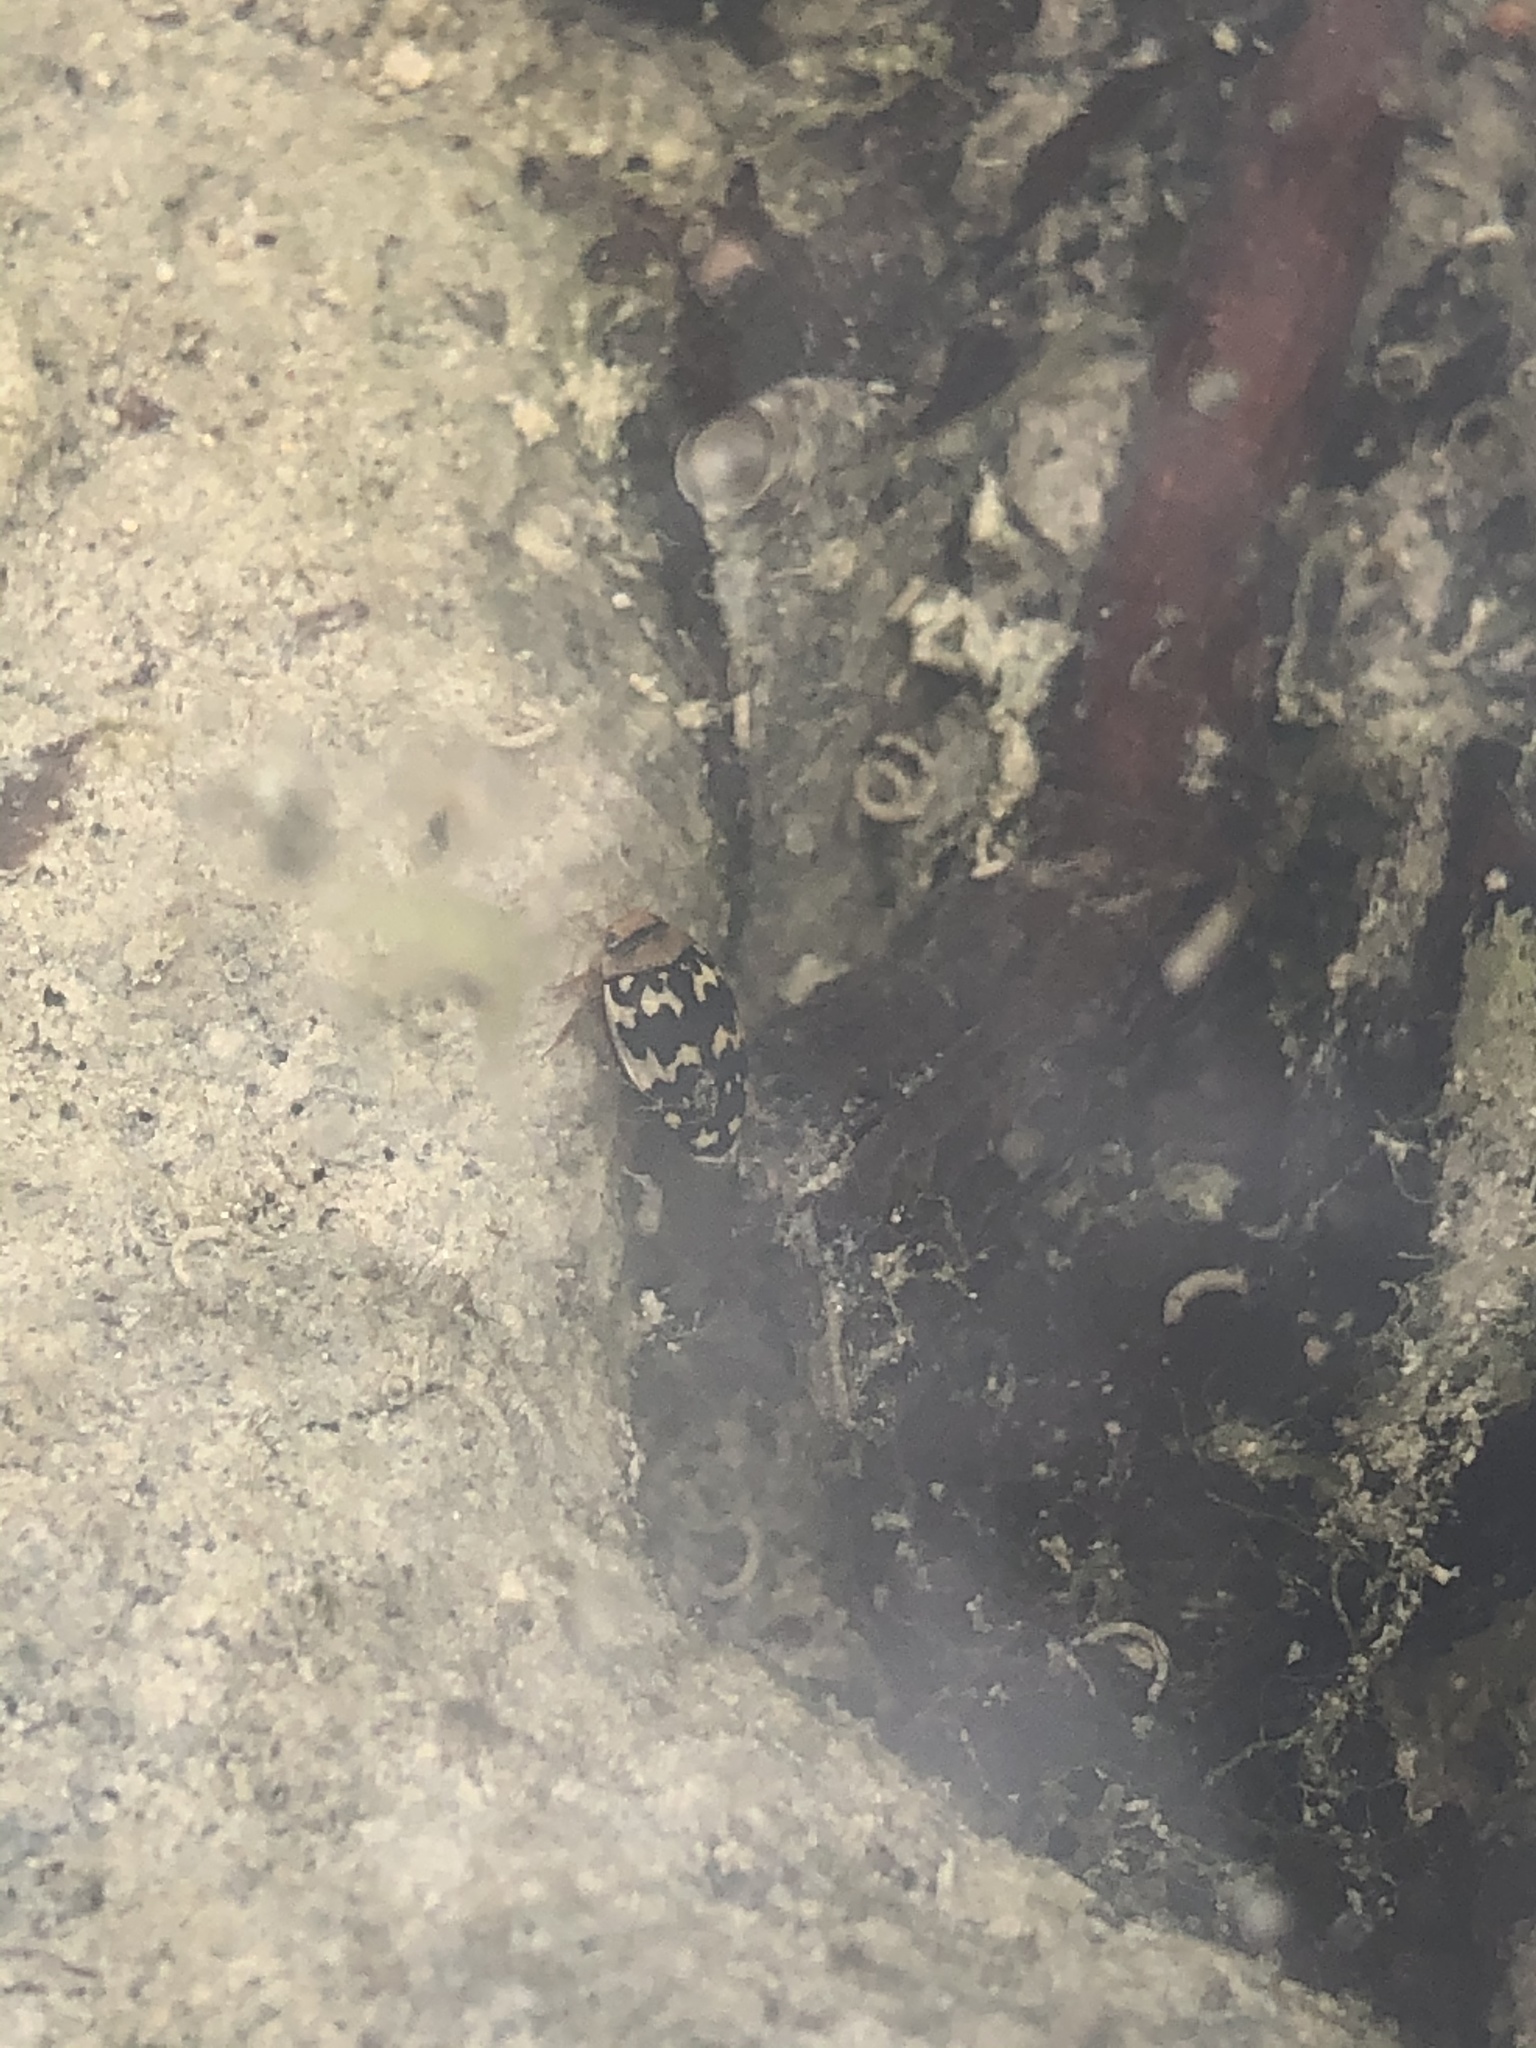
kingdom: Animalia
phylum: Arthropoda
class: Insecta
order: Coleoptera
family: Dytiscidae
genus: Laccophilus
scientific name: Laccophilus pictus
